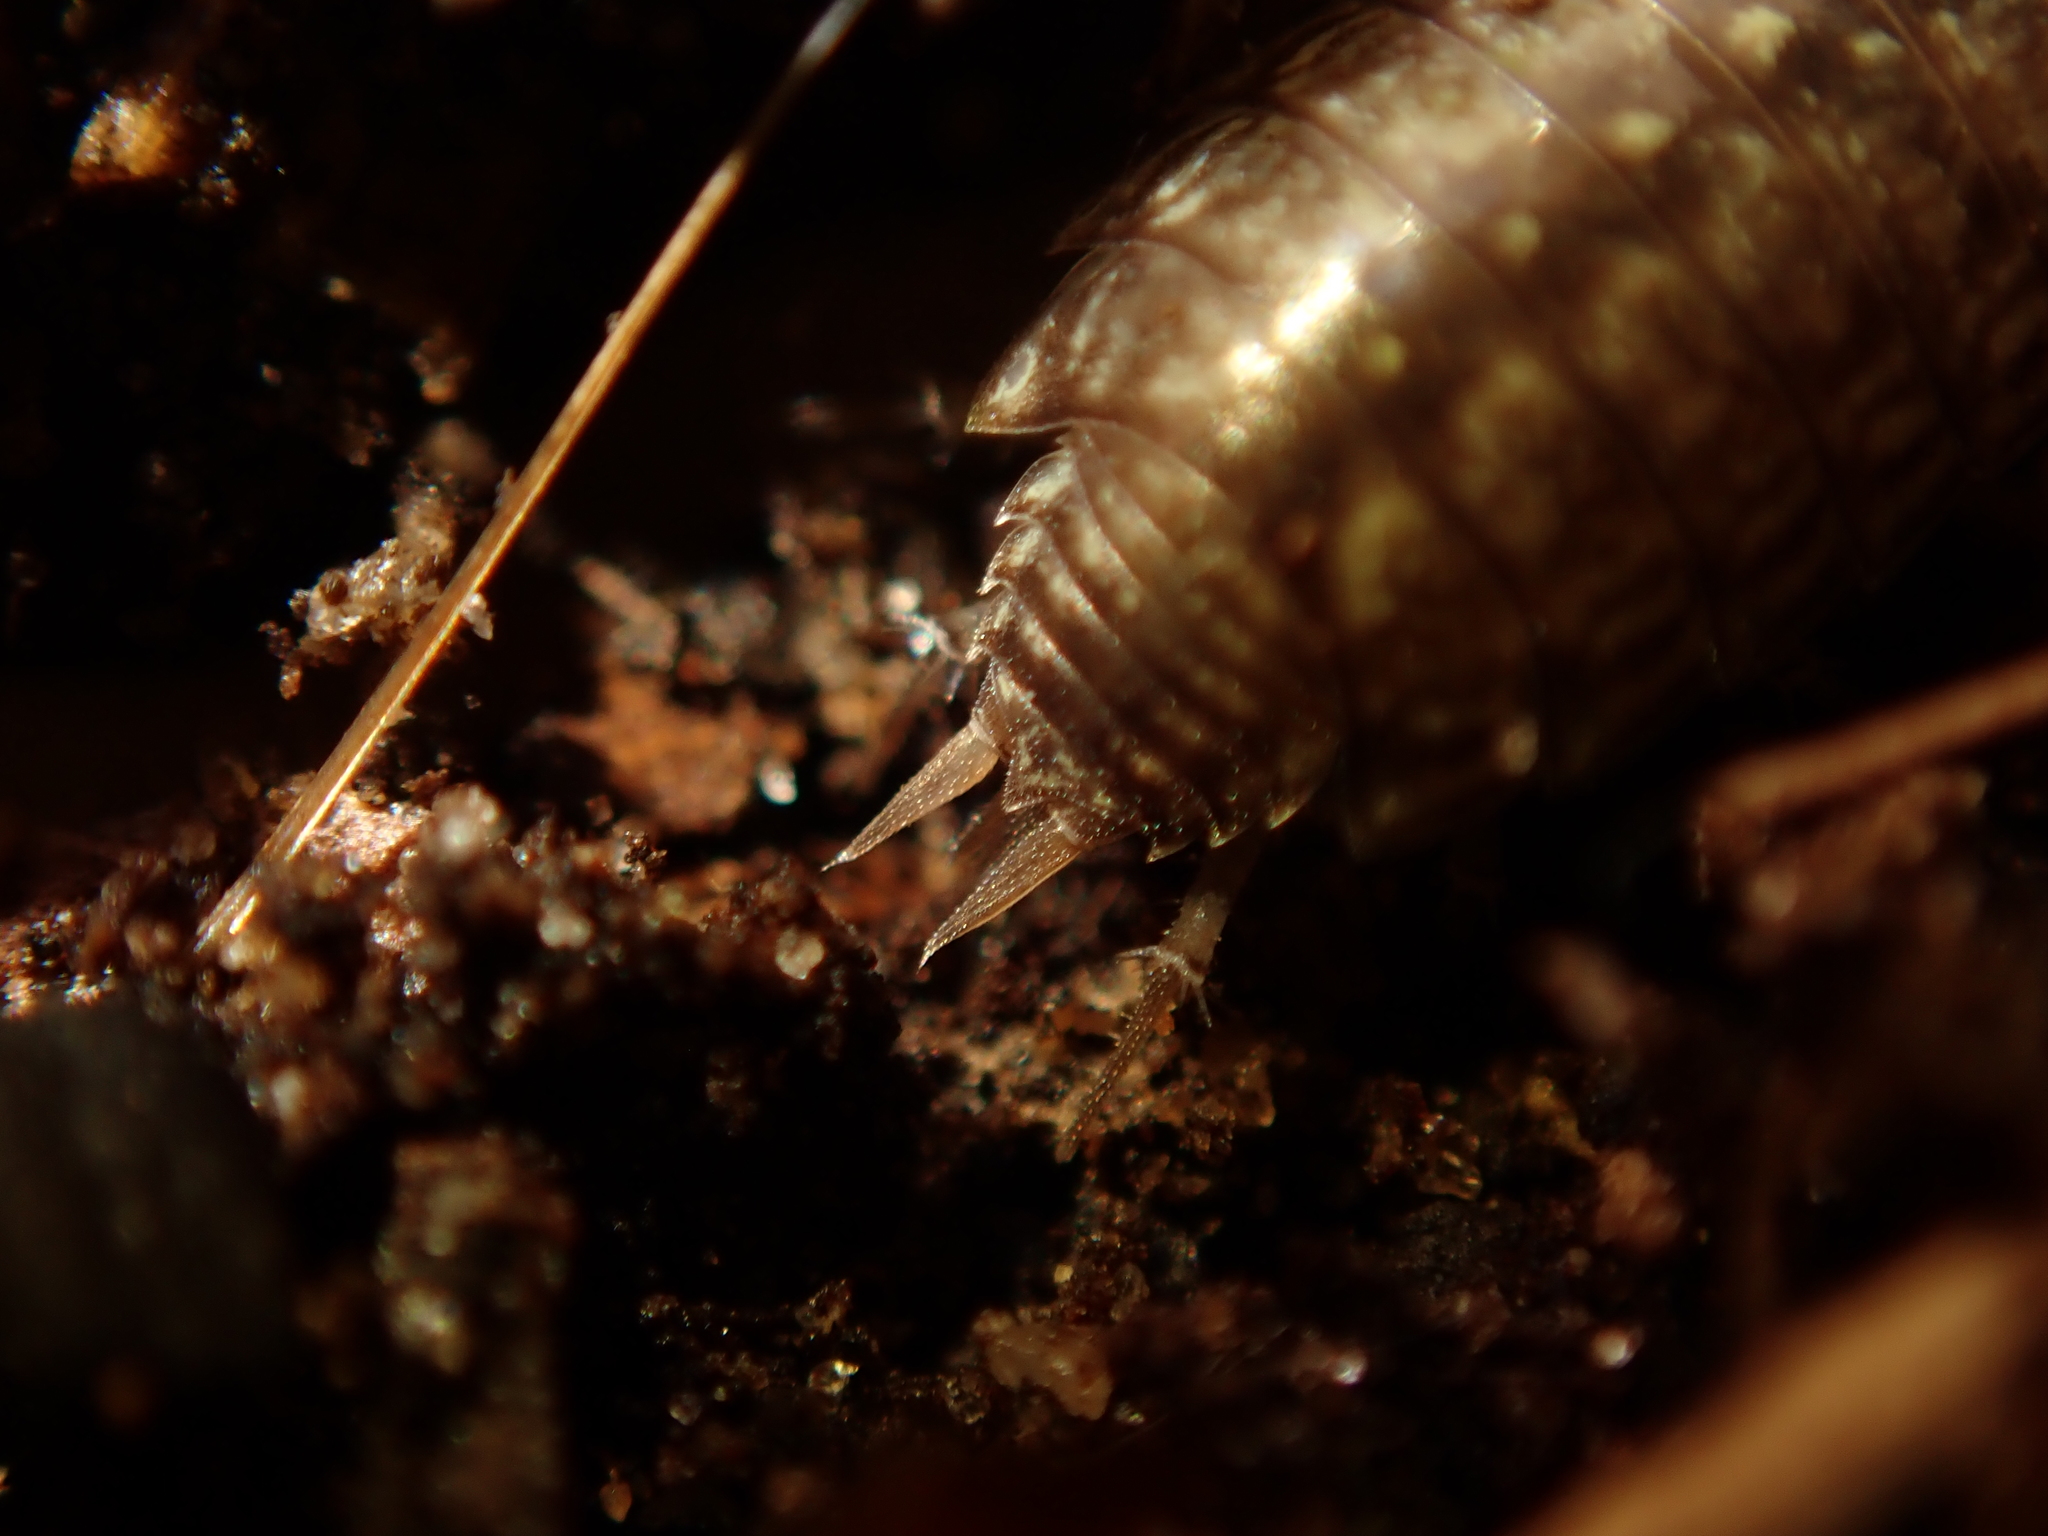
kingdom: Animalia
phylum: Arthropoda
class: Malacostraca
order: Isopoda
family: Philosciidae
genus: Philoscia
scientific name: Philoscia muscorum
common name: Common striped woodlouse
